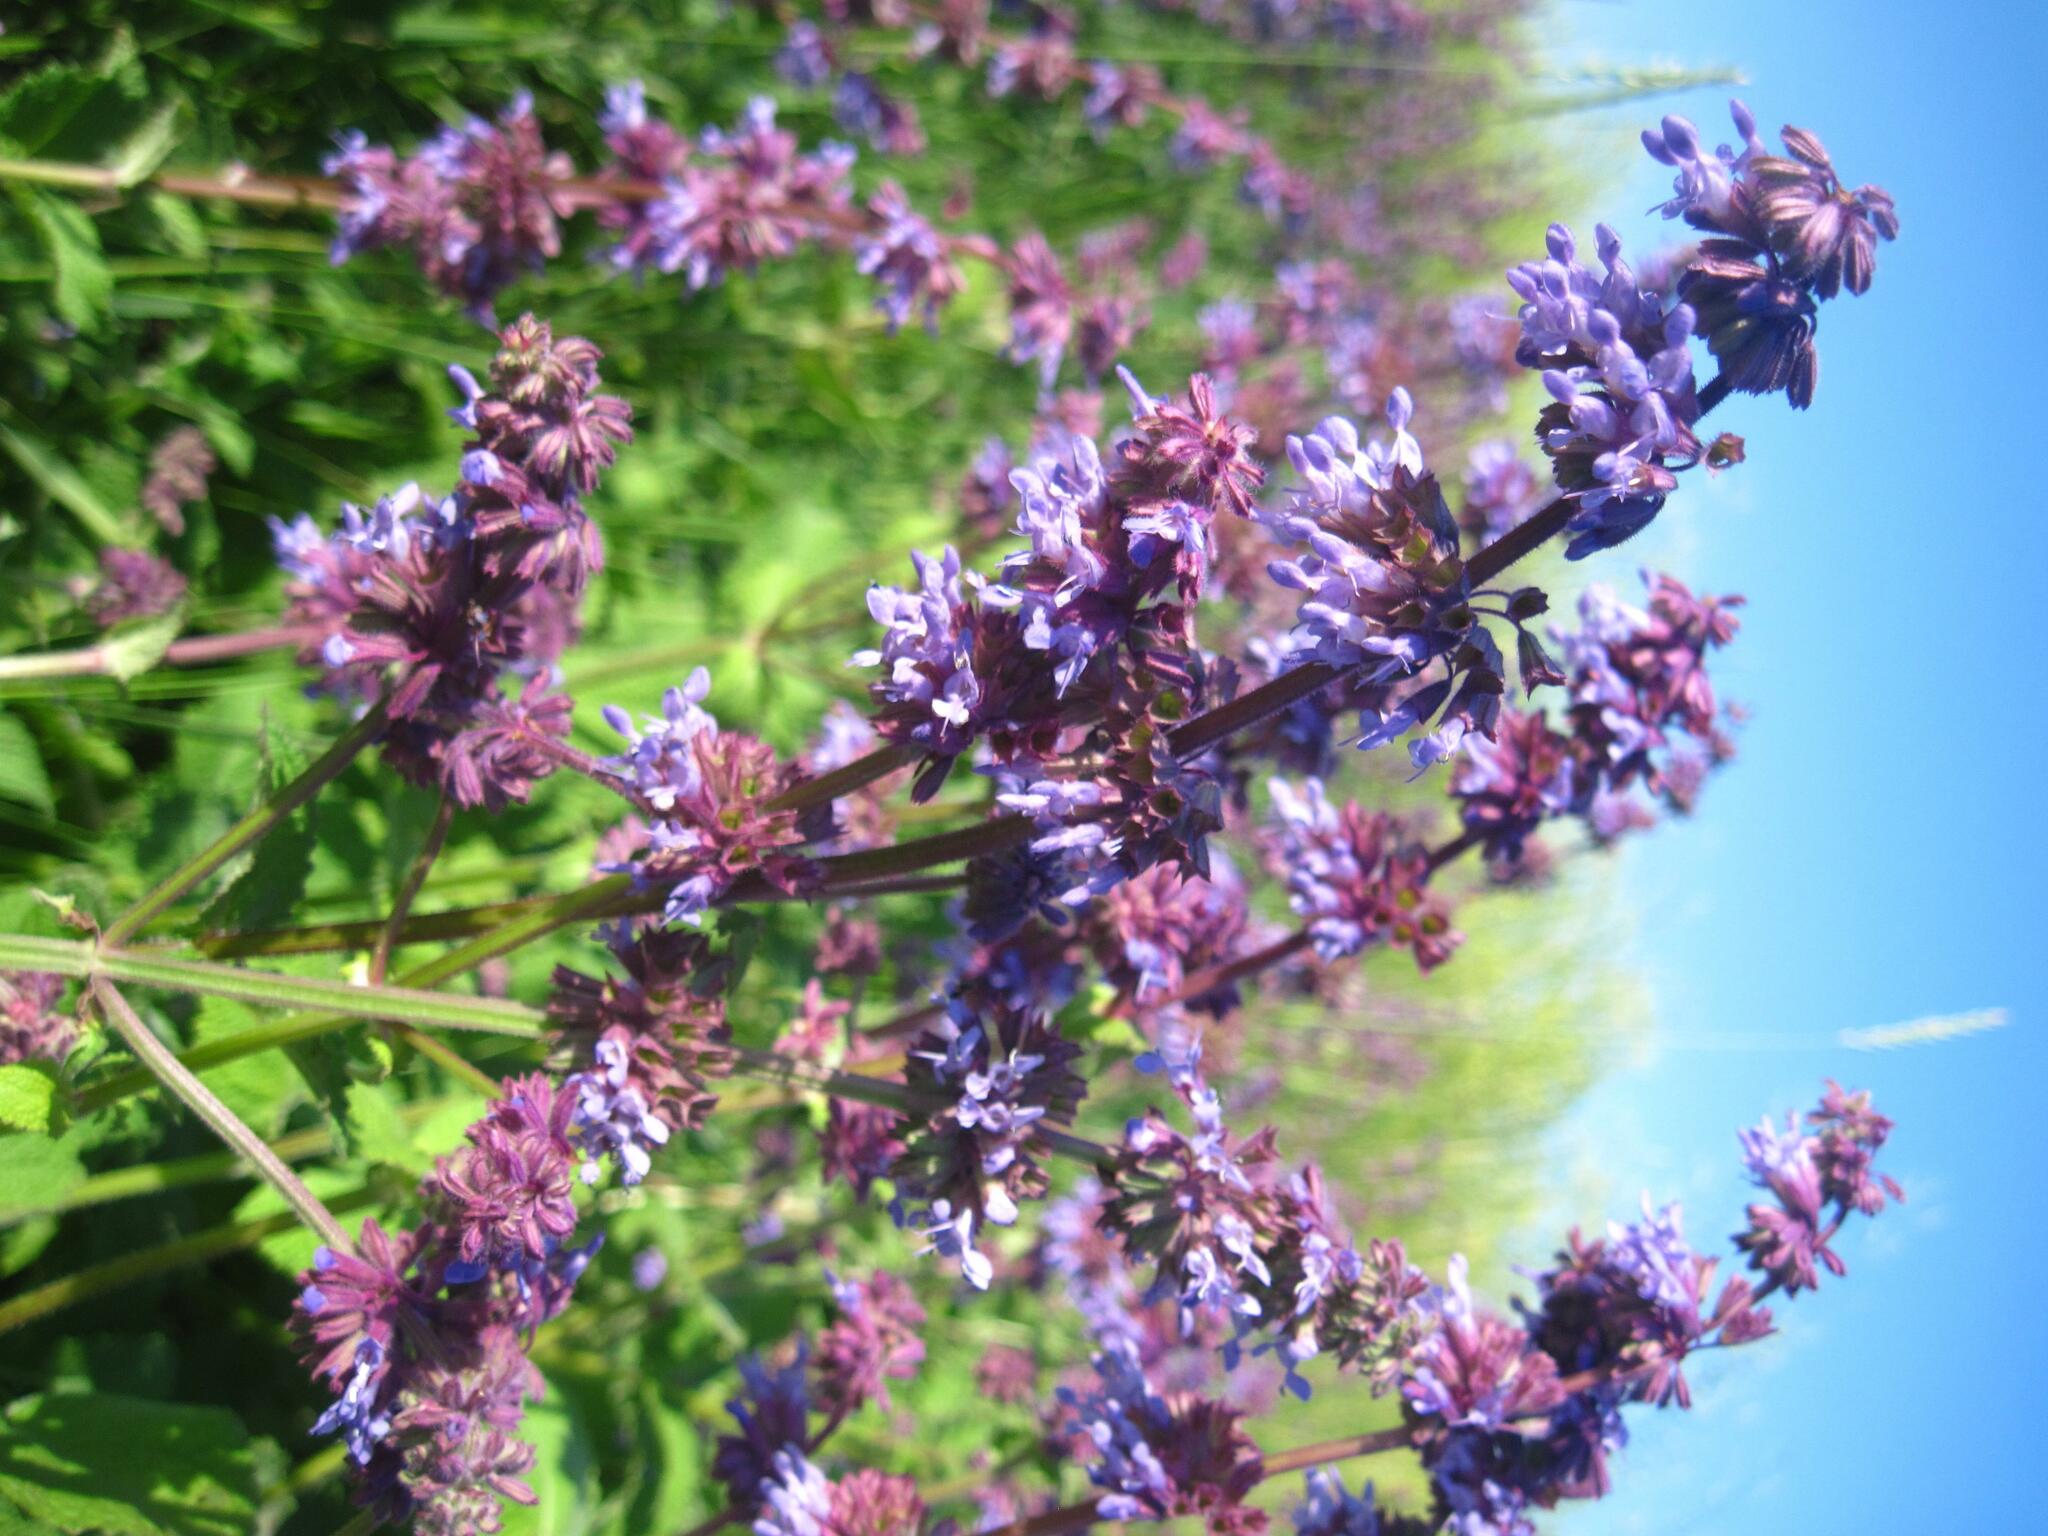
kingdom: Plantae
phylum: Tracheophyta
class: Magnoliopsida
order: Lamiales
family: Lamiaceae
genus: Salvia
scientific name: Salvia verticillata
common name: Whorled clary
